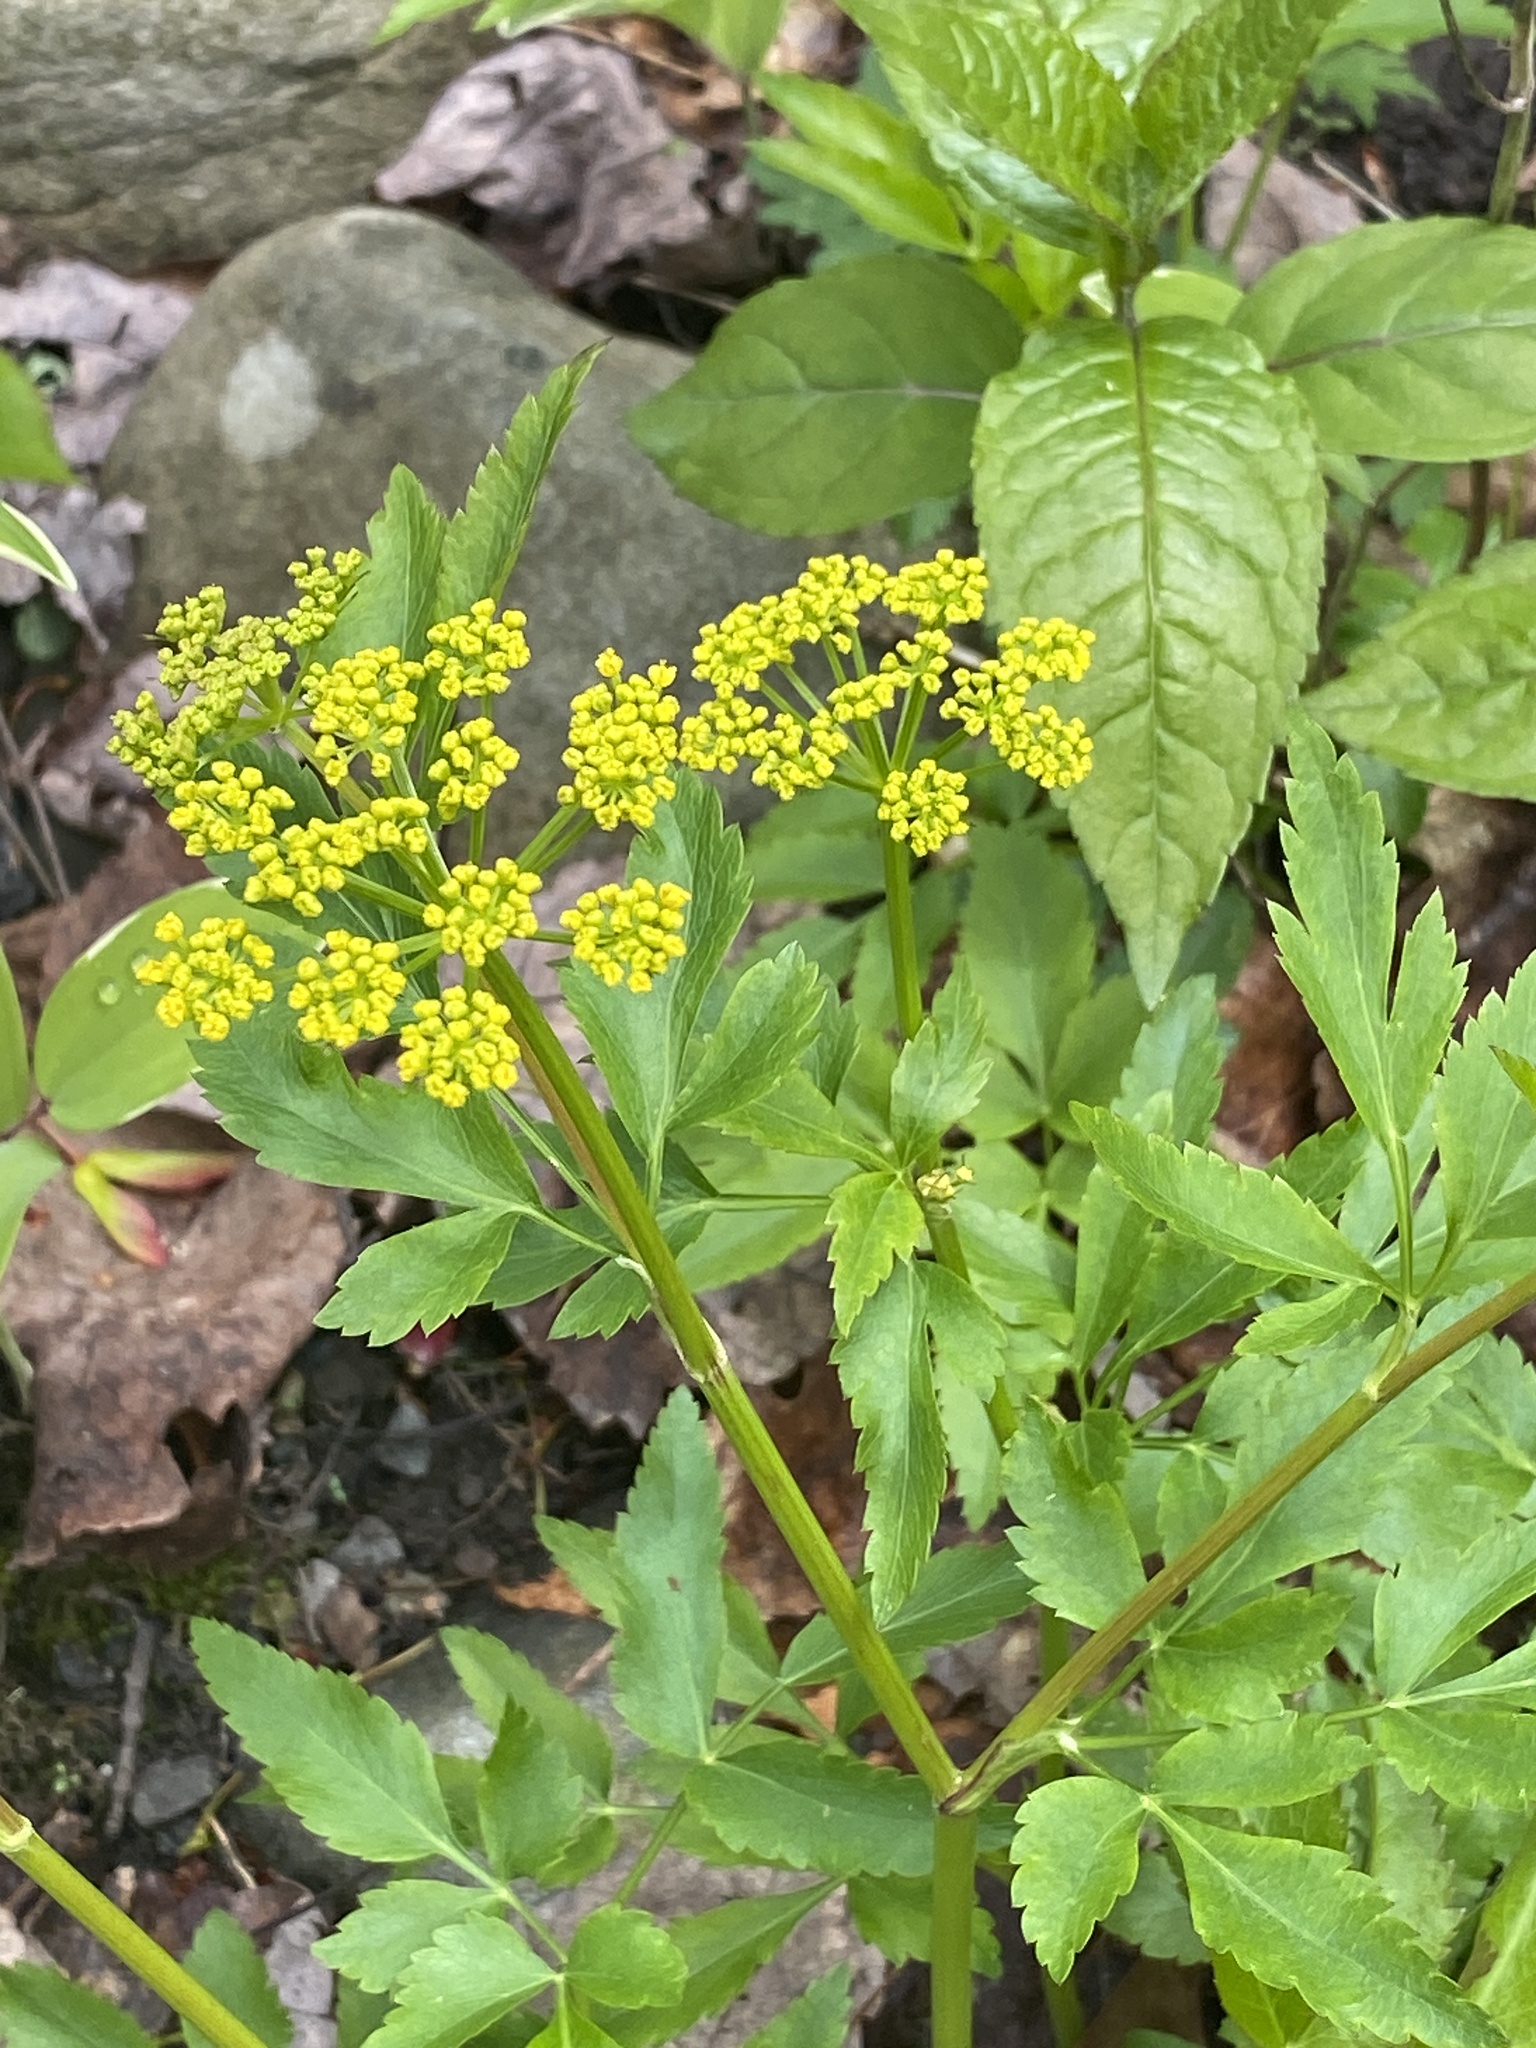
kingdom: Plantae
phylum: Tracheophyta
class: Magnoliopsida
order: Apiales
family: Apiaceae
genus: Zizia
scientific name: Zizia aurea
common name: Golden alexanders
